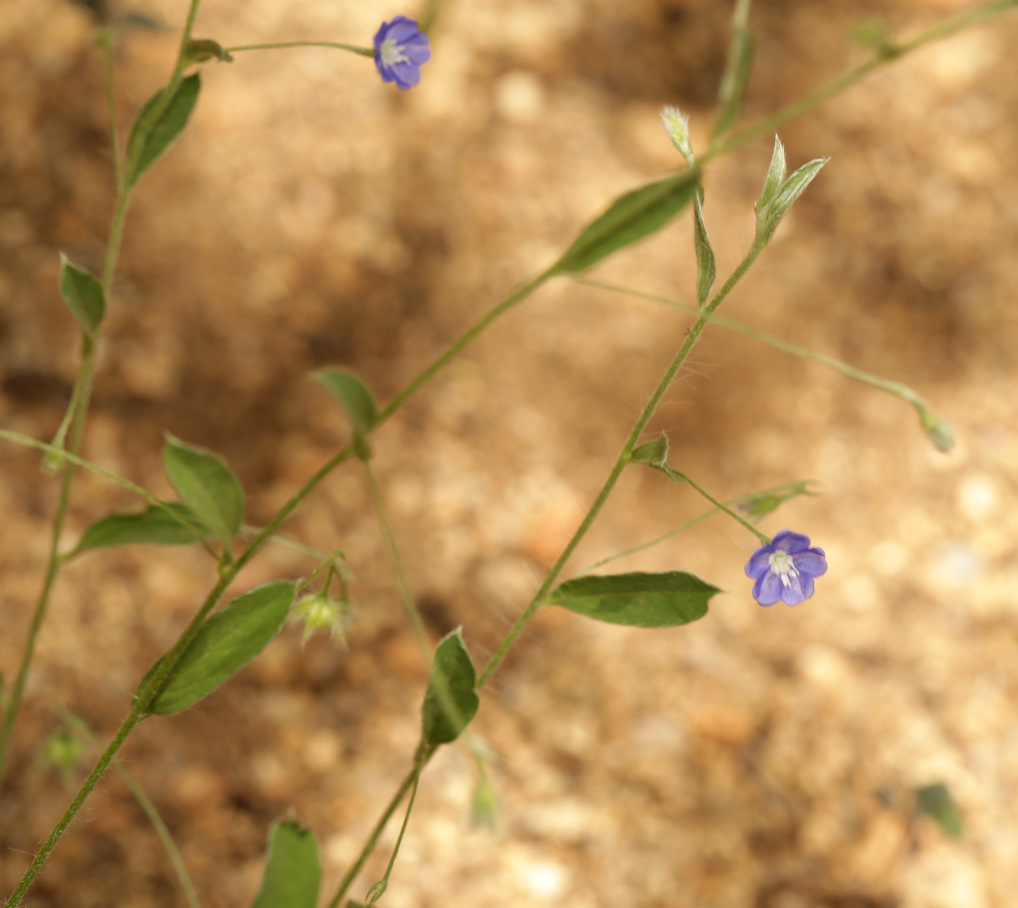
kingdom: Plantae
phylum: Tracheophyta
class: Magnoliopsida
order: Solanales
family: Convolvulaceae
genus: Evolvulus
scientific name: Evolvulus alsinoides
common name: Slender dwarf morning-glory
